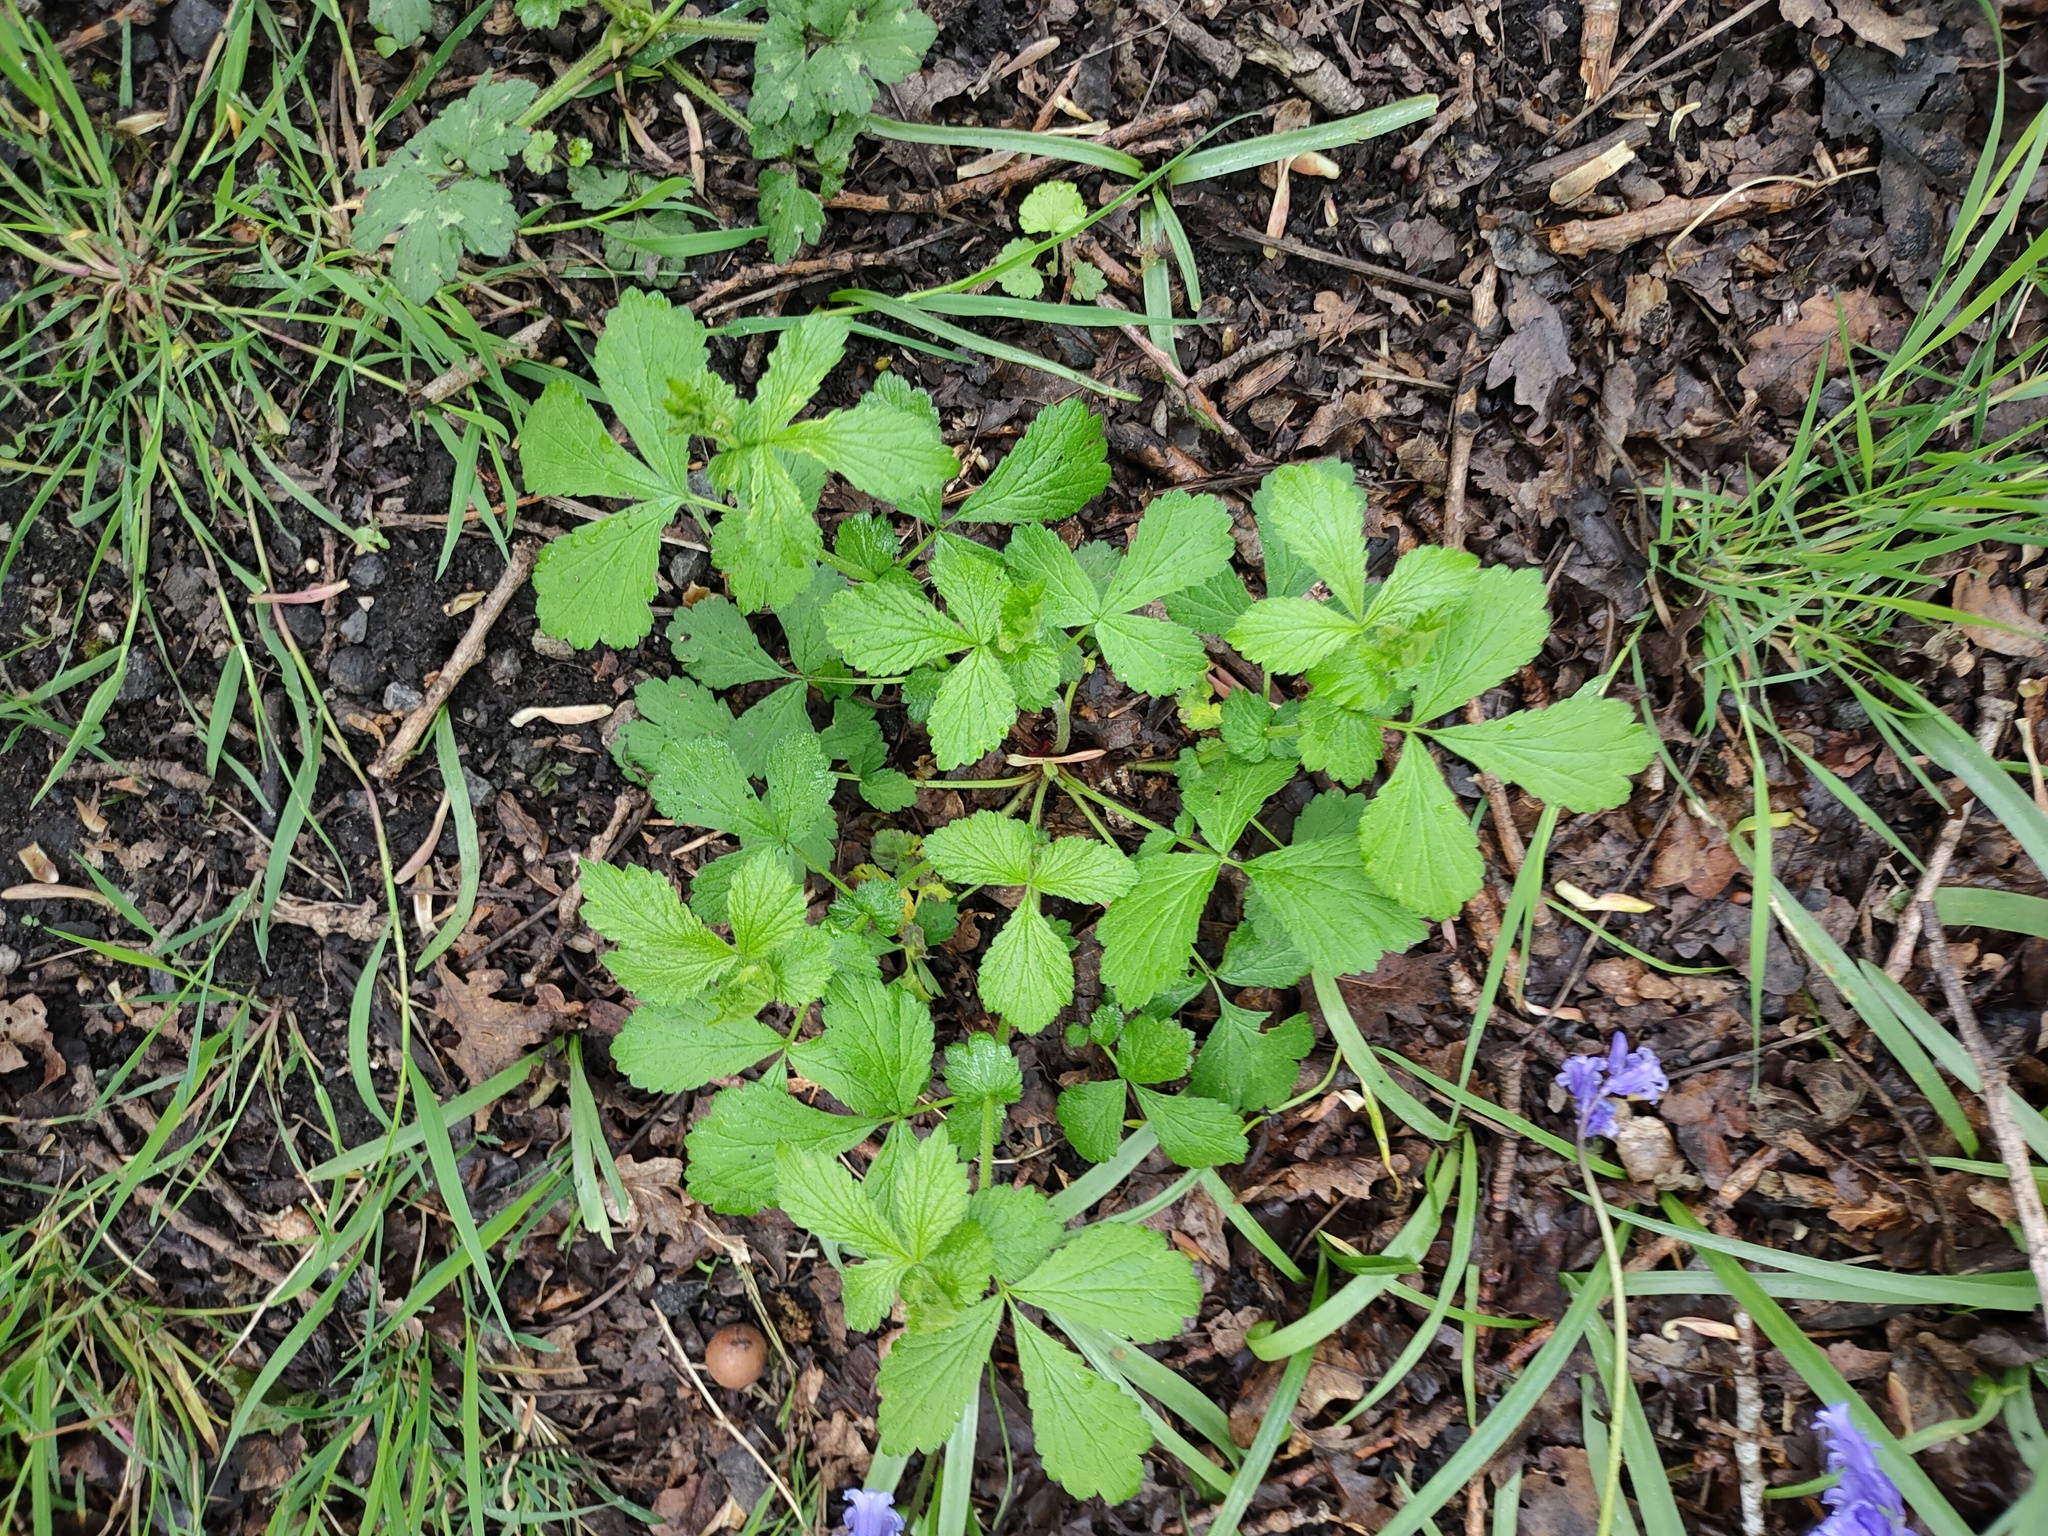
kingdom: Plantae
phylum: Tracheophyta
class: Magnoliopsida
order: Rosales
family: Rosaceae
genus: Geum
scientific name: Geum urbanum
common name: Wood avens
